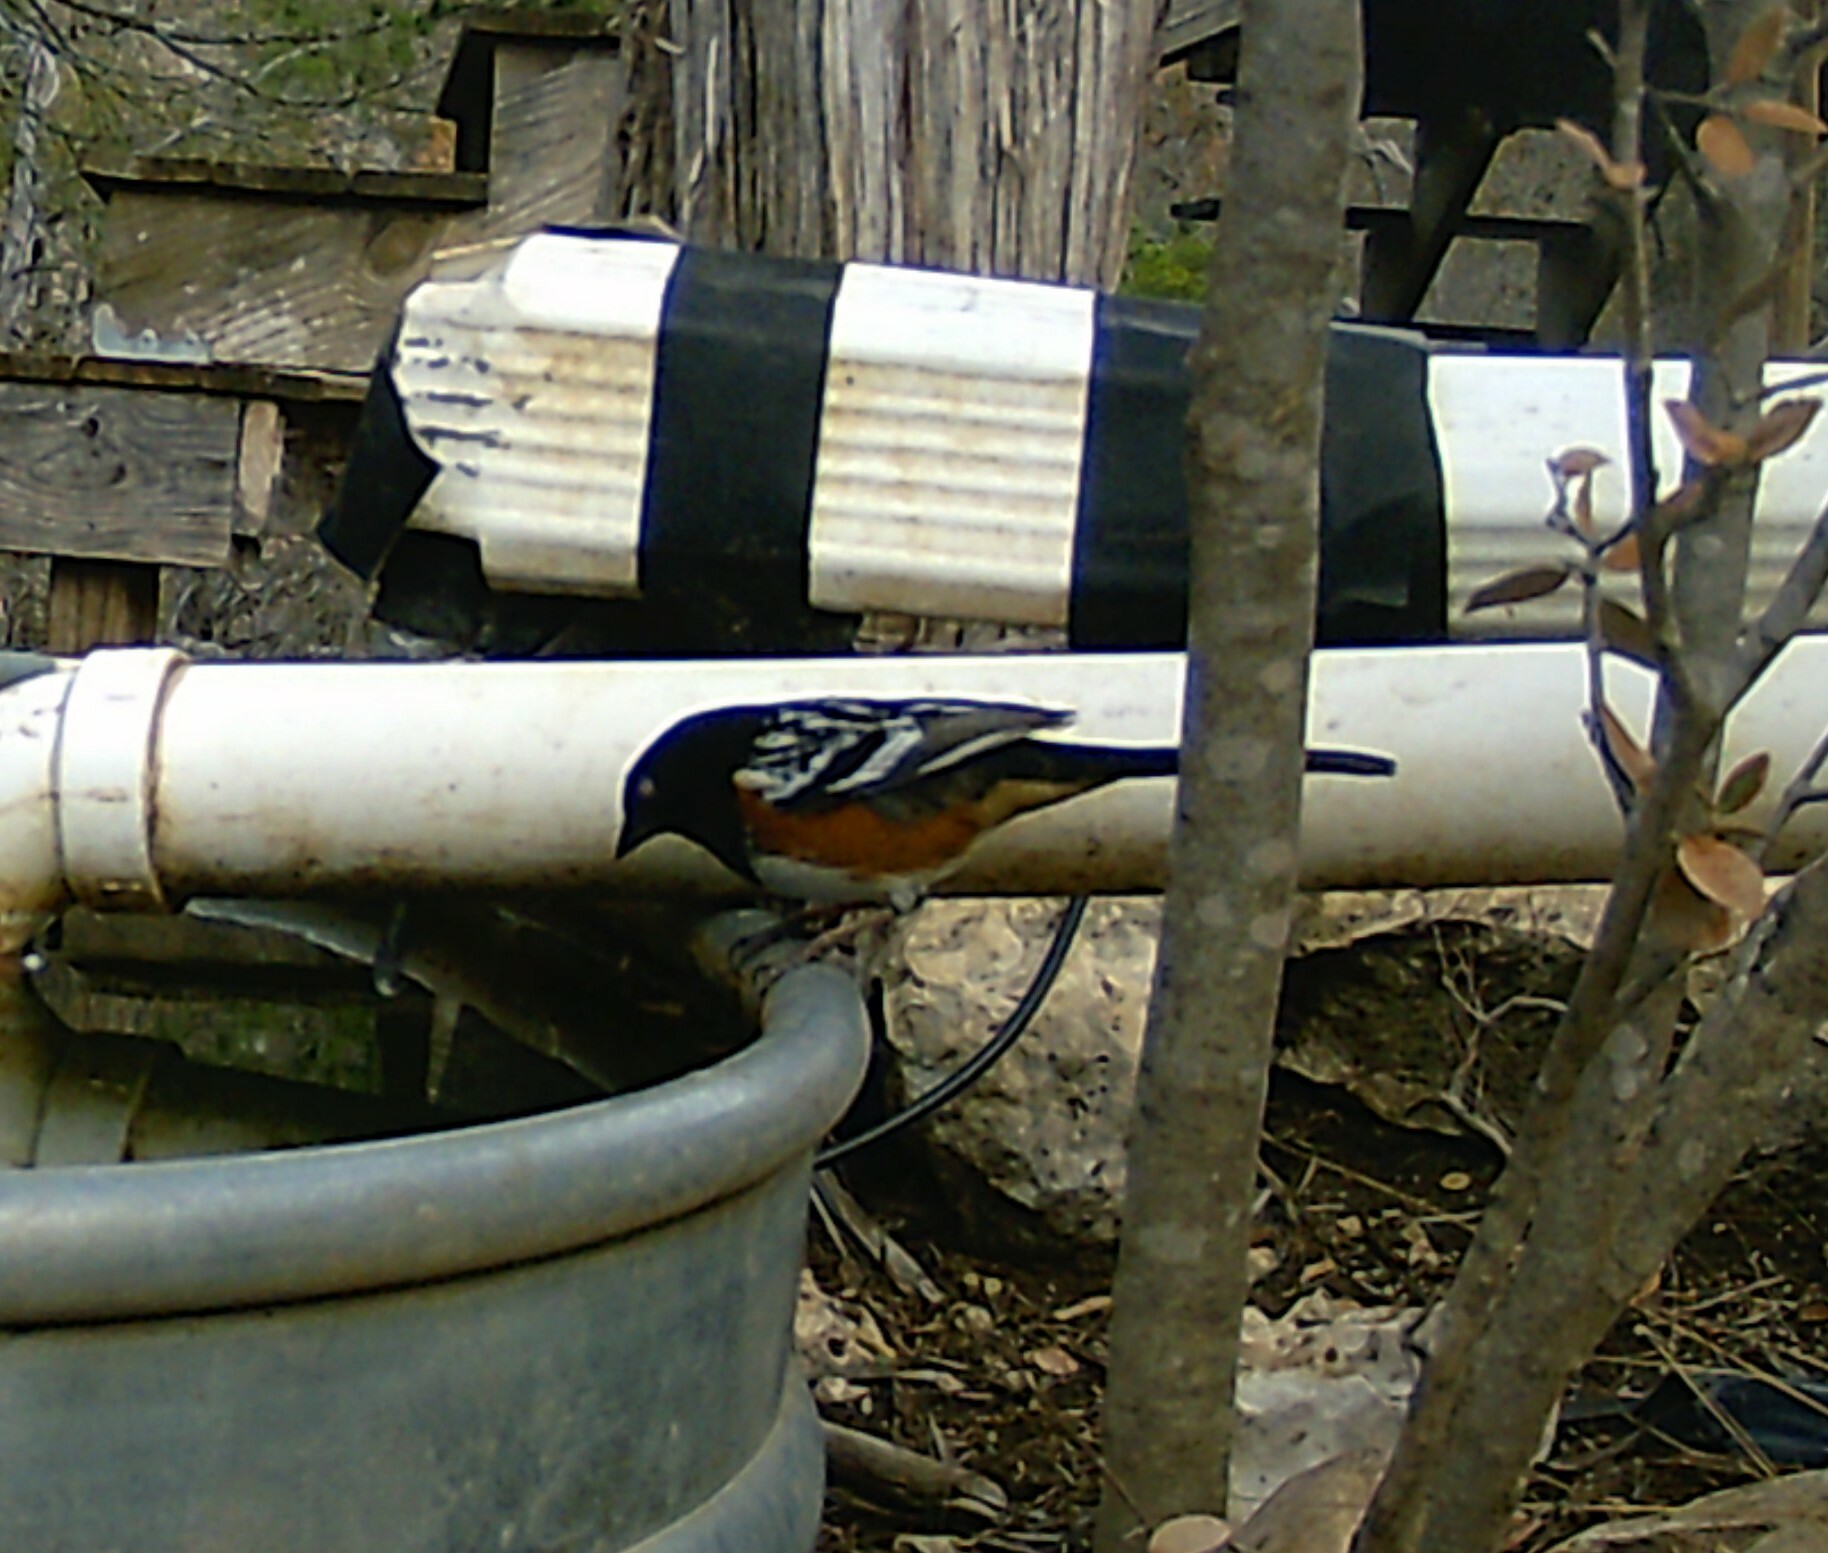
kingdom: Animalia
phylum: Chordata
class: Aves
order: Passeriformes
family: Passerellidae
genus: Pipilo
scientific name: Pipilo maculatus
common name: Spotted towhee
